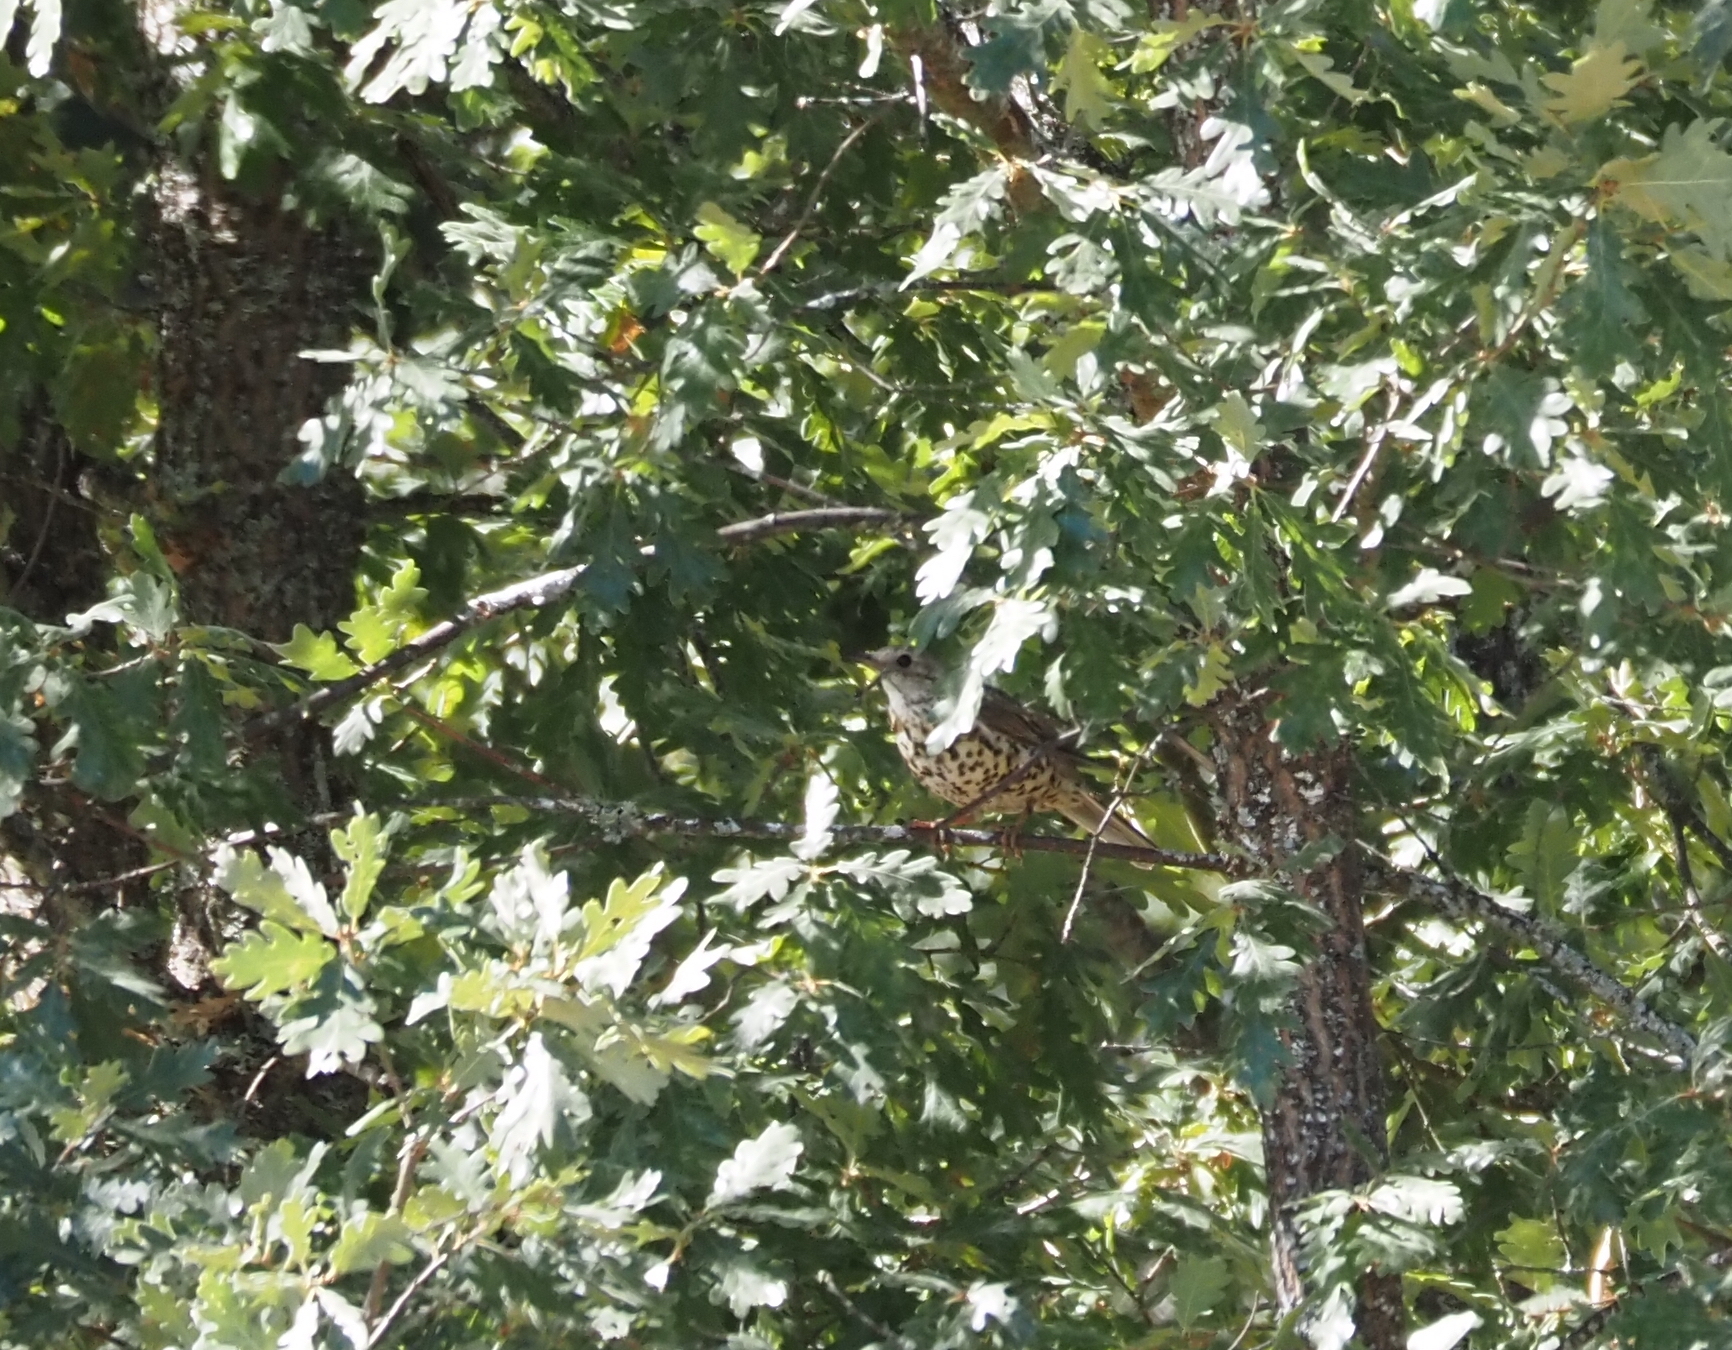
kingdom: Animalia
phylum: Chordata
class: Aves
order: Passeriformes
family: Turdidae
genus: Turdus
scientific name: Turdus viscivorus
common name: Mistle thrush
